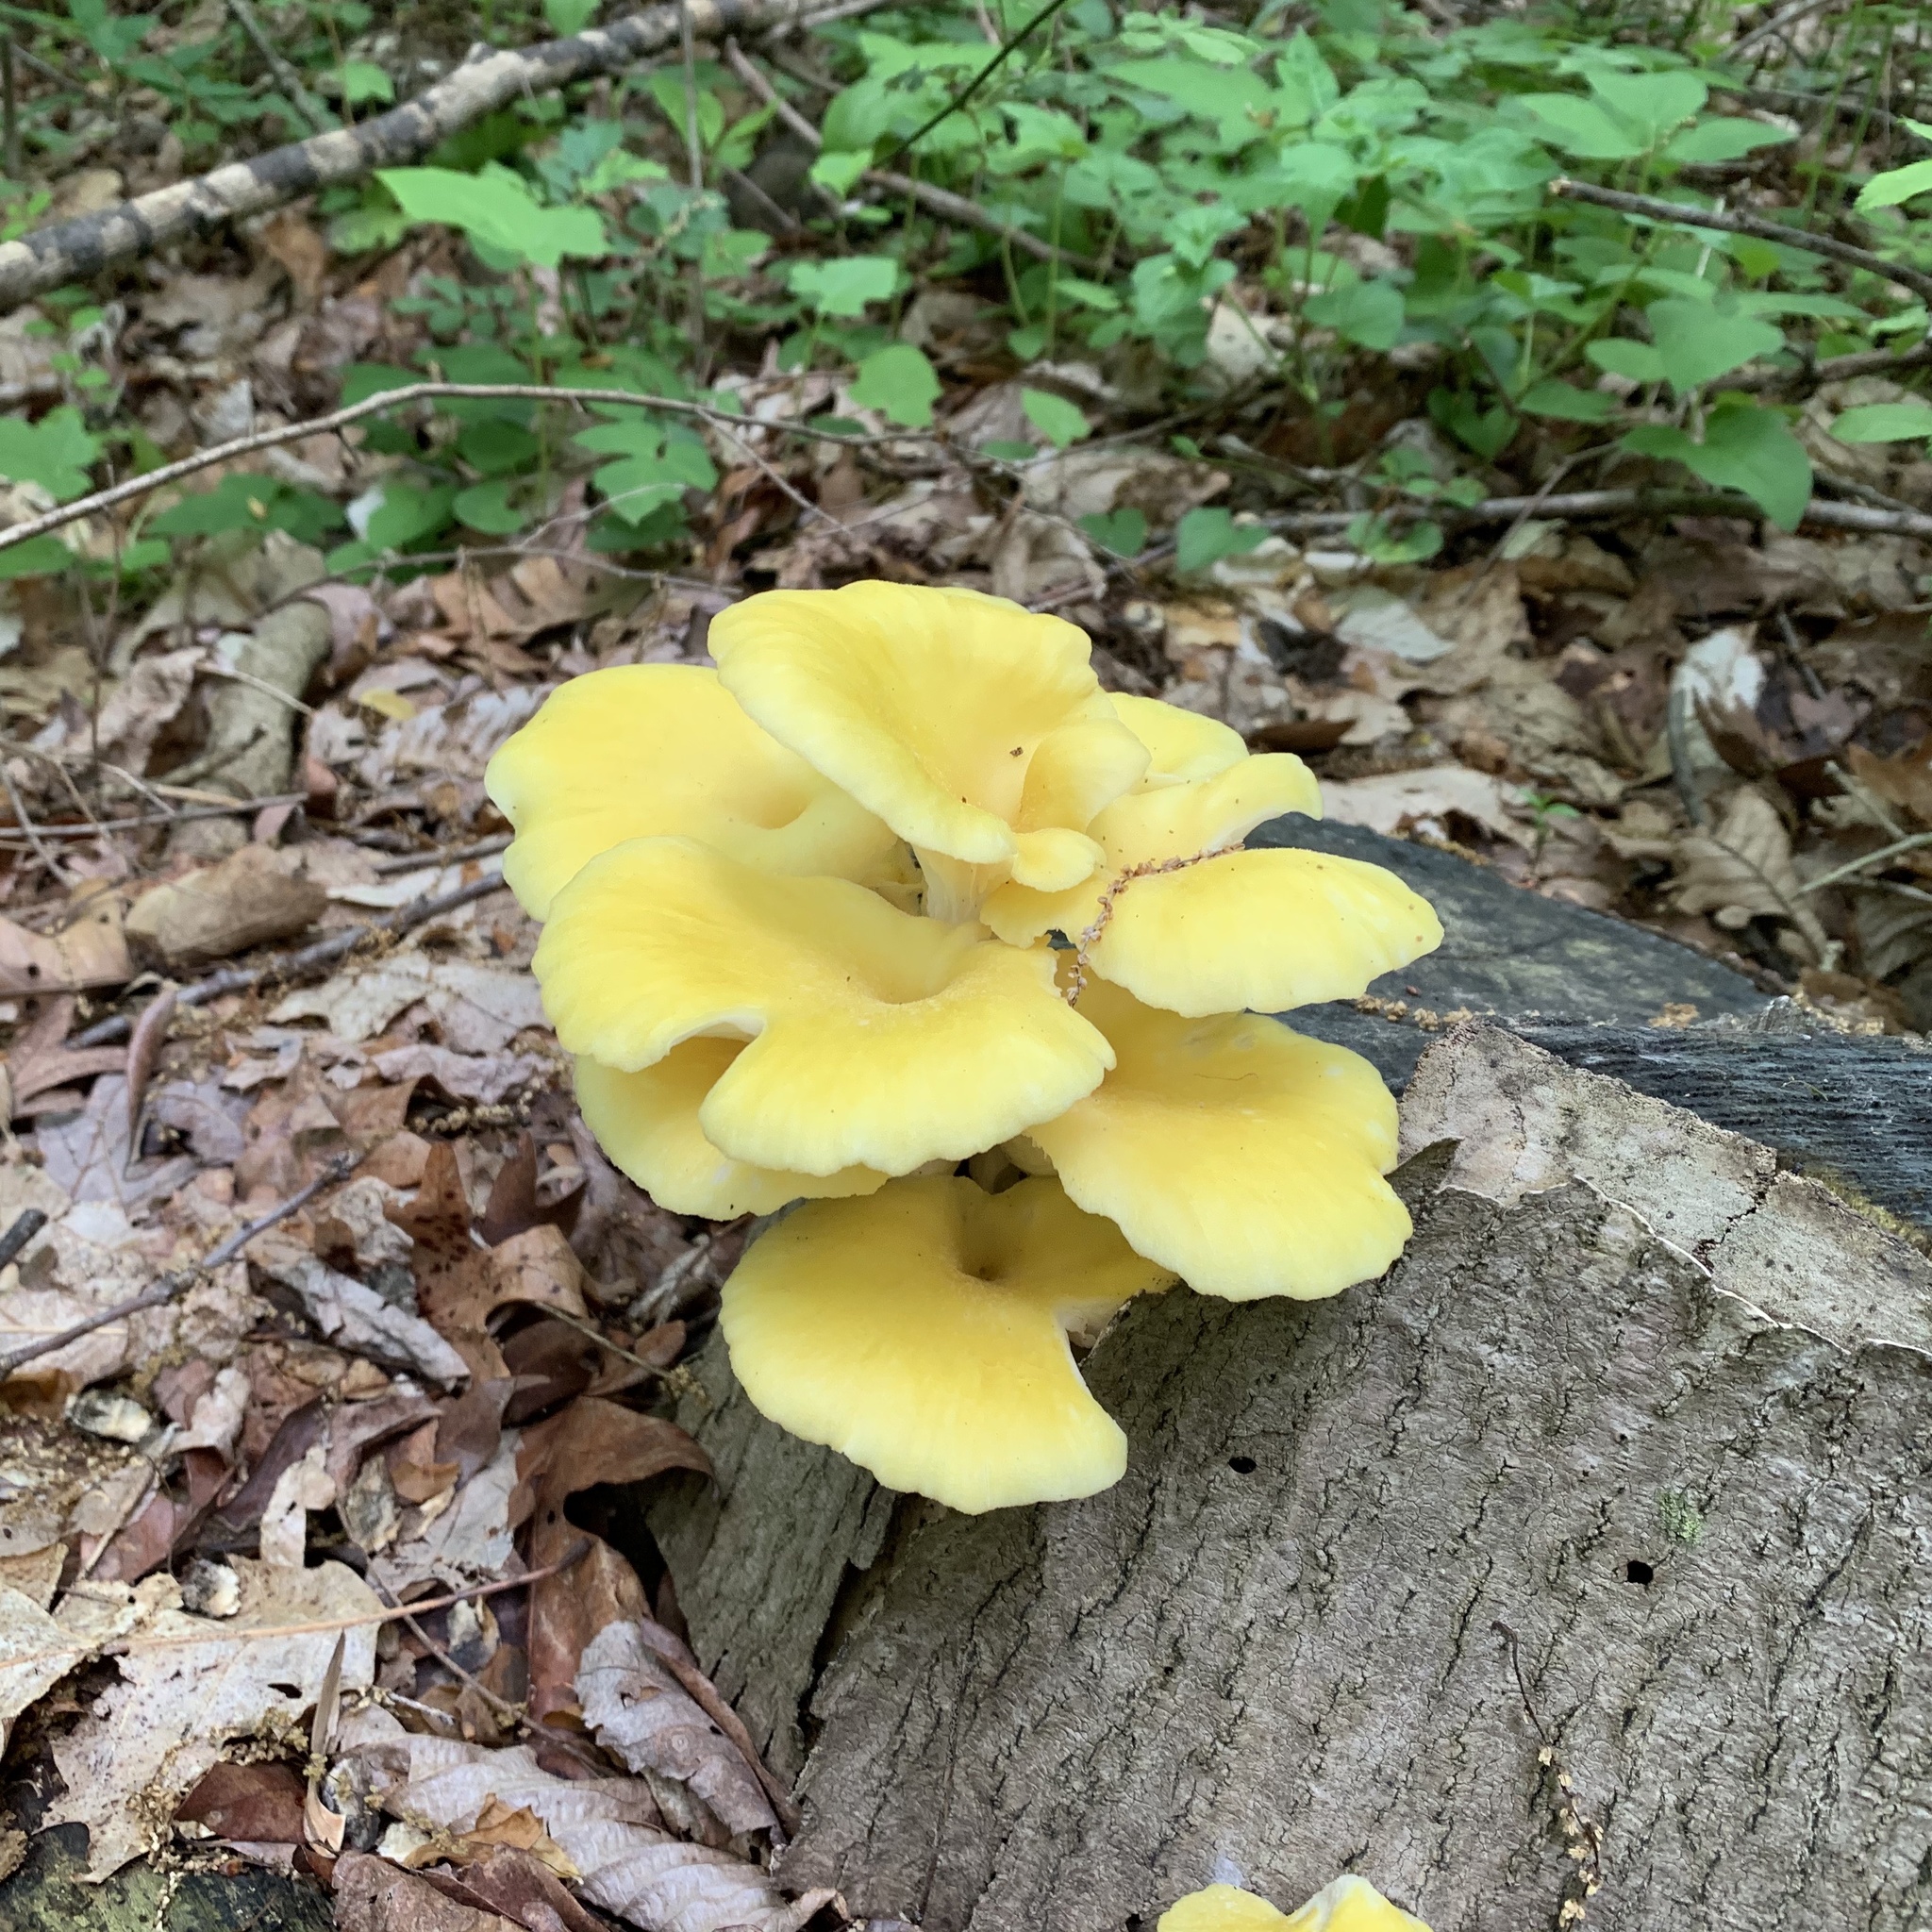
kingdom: Fungi
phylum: Basidiomycota
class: Agaricomycetes
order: Agaricales
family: Pleurotaceae
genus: Pleurotus
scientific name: Pleurotus citrinopileatus
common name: Golden oyster mushroom
